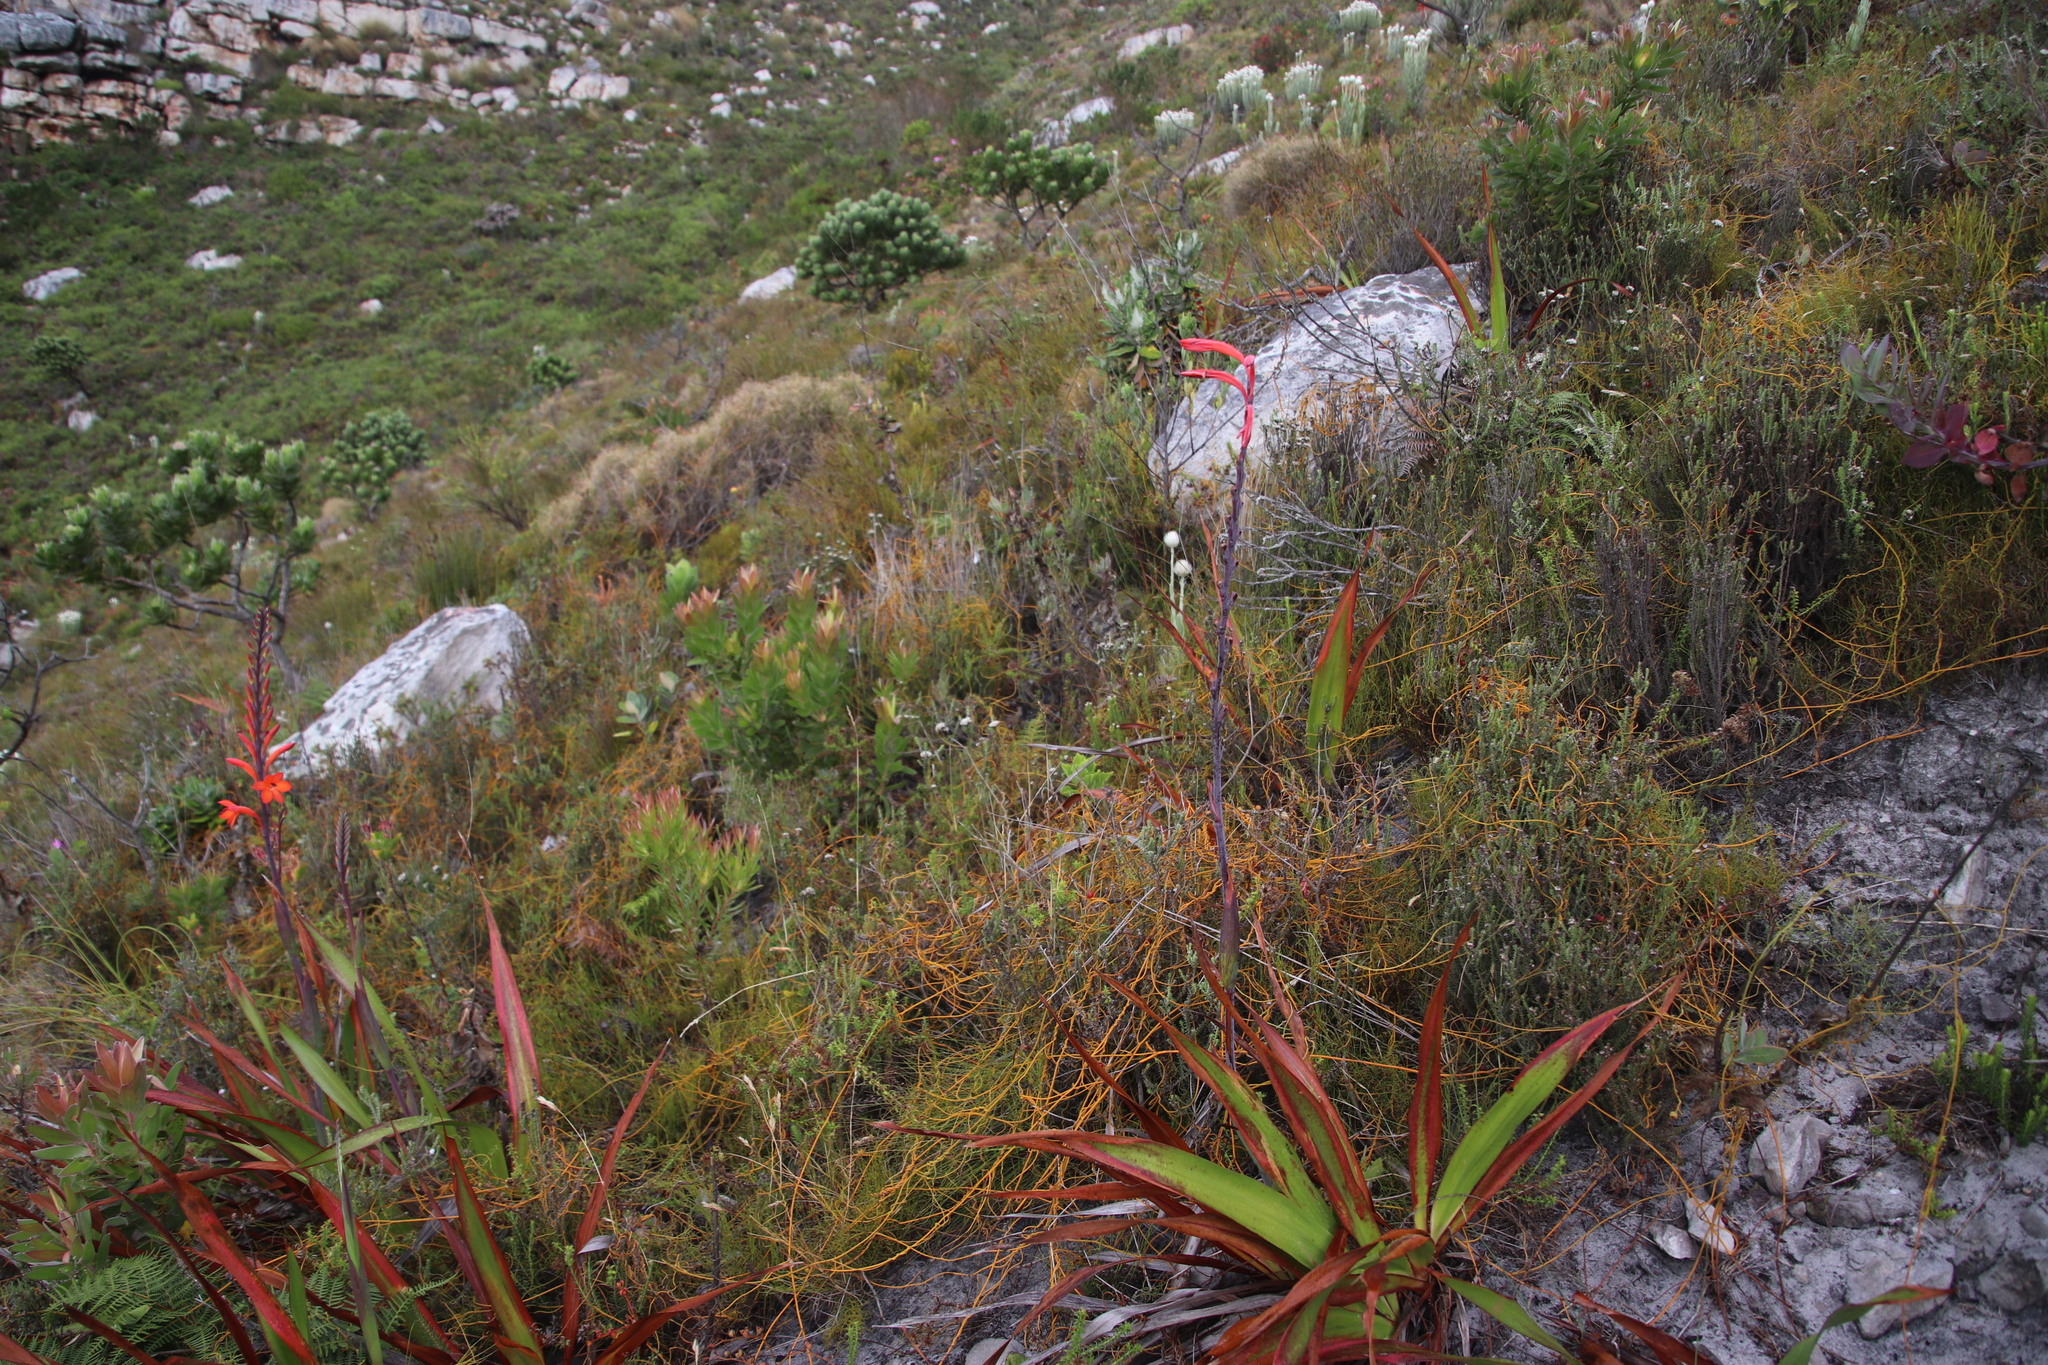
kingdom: Plantae
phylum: Tracheophyta
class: Magnoliopsida
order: Laurales
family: Lauraceae
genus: Cassytha
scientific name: Cassytha ciliolata
